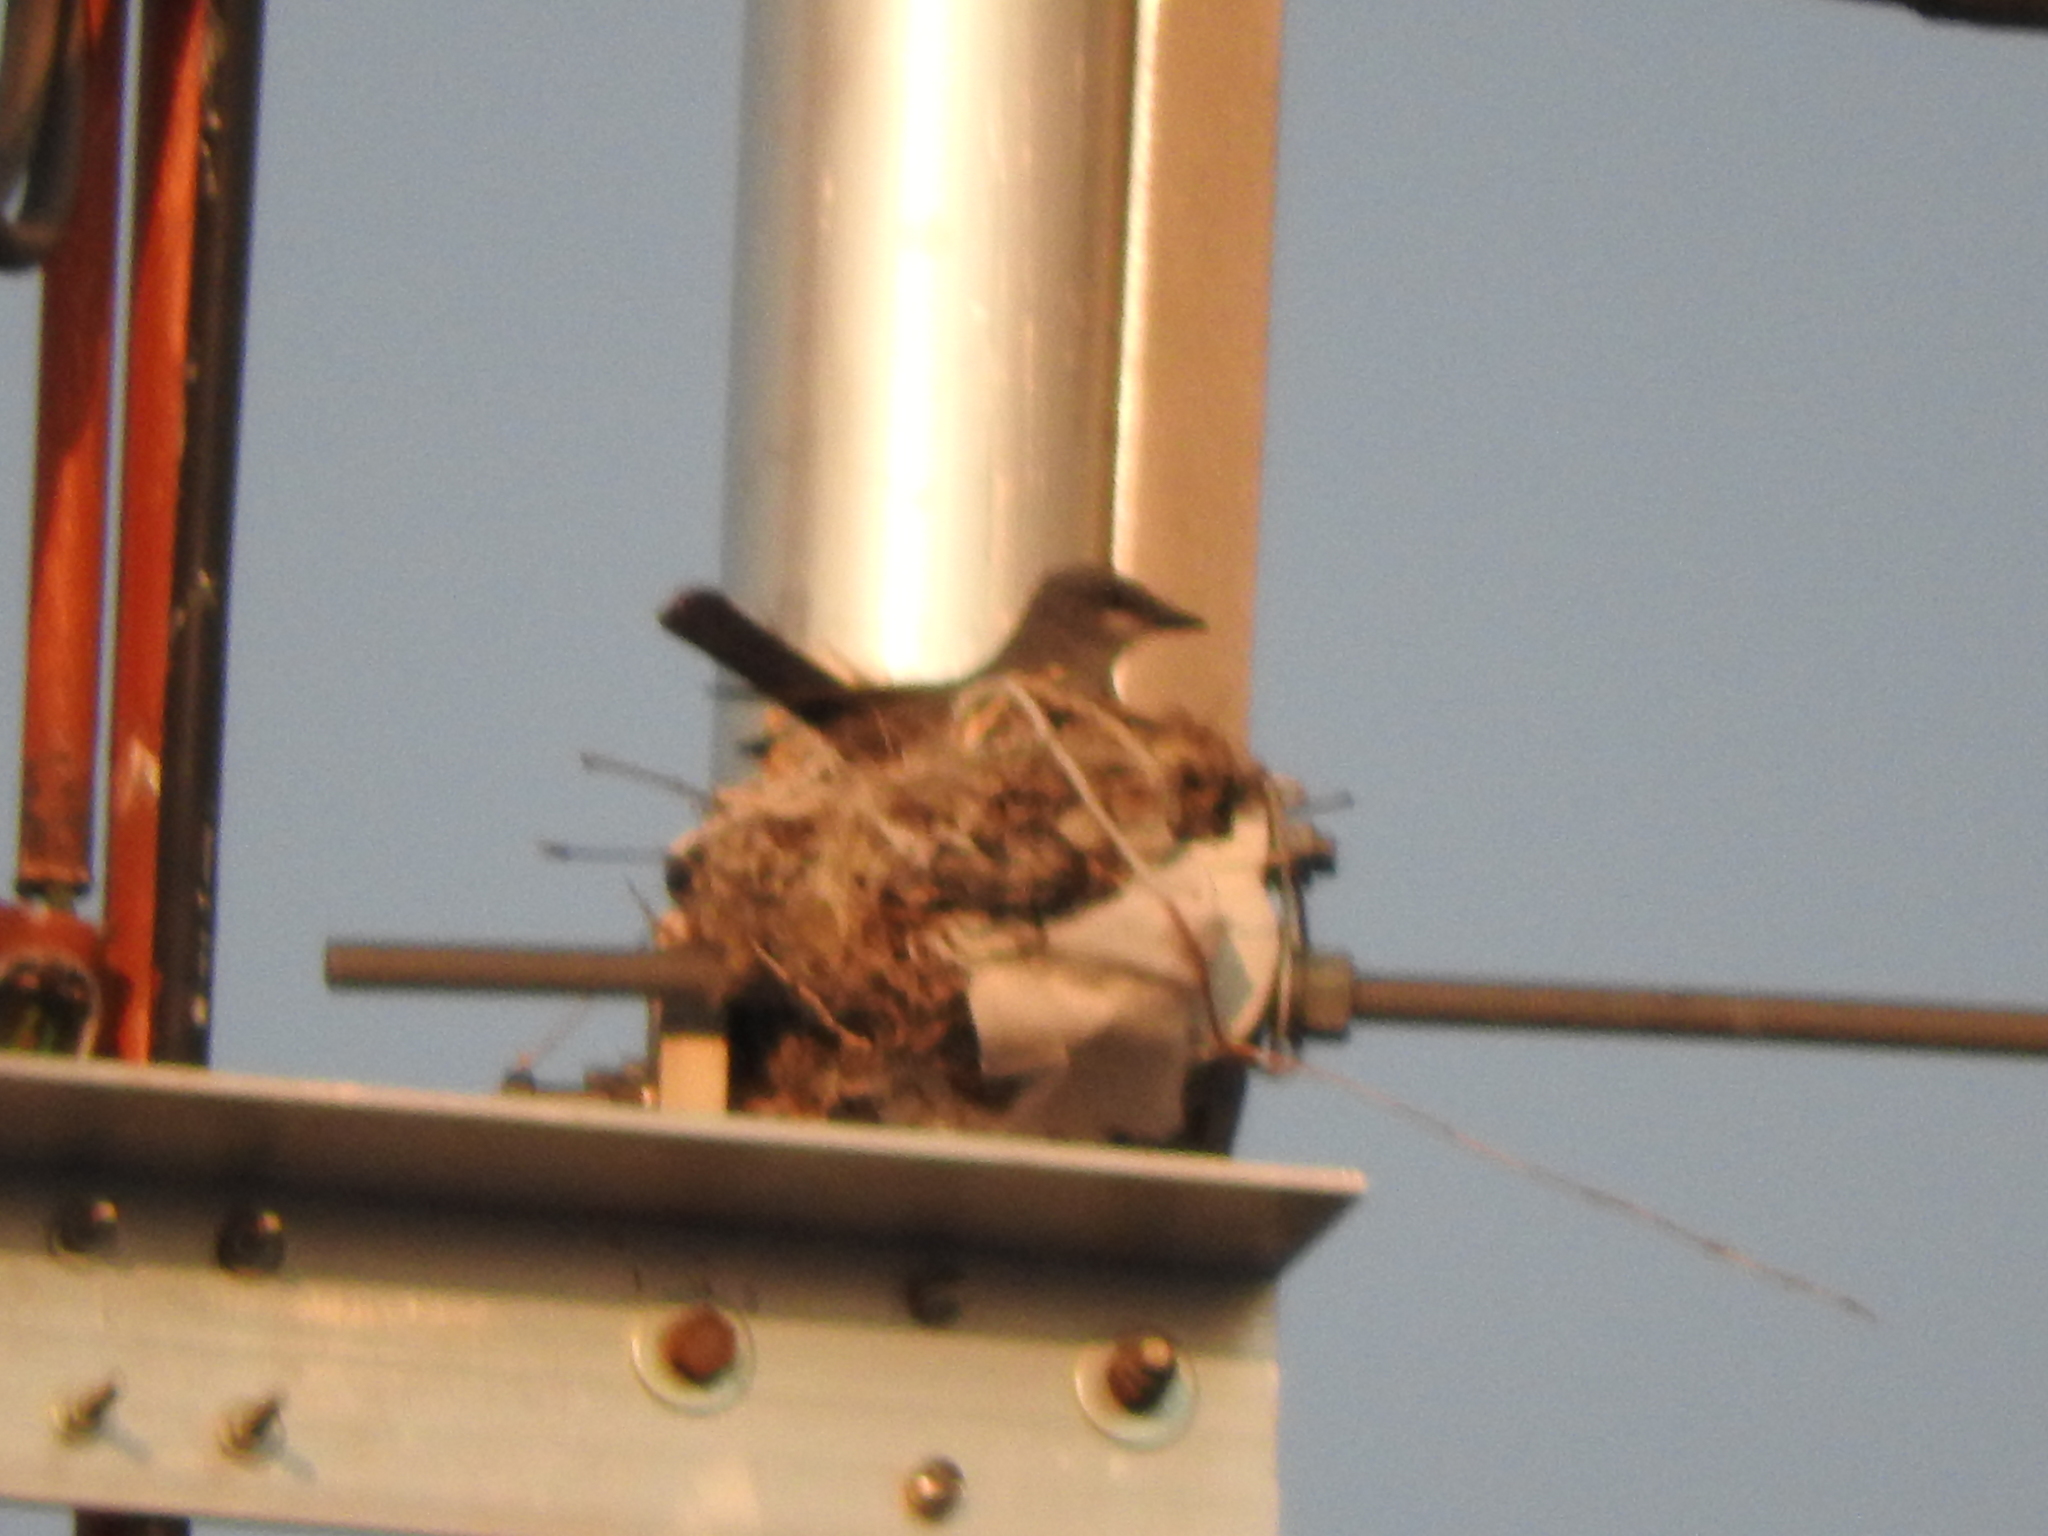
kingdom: Animalia
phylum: Chordata
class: Aves
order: Passeriformes
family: Tyrannidae
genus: Tyrannus
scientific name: Tyrannus vociferans
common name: Cassin's kingbird
